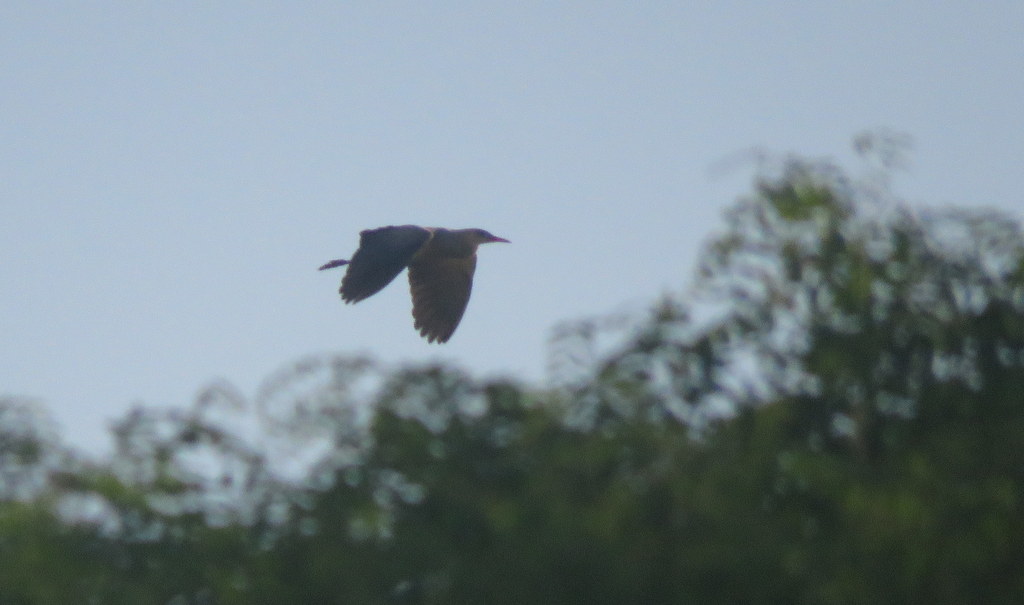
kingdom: Animalia
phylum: Chordata
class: Aves
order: Pelecaniformes
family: Ardeidae
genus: Syrigma
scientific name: Syrigma sibilatrix
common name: Whistling heron
